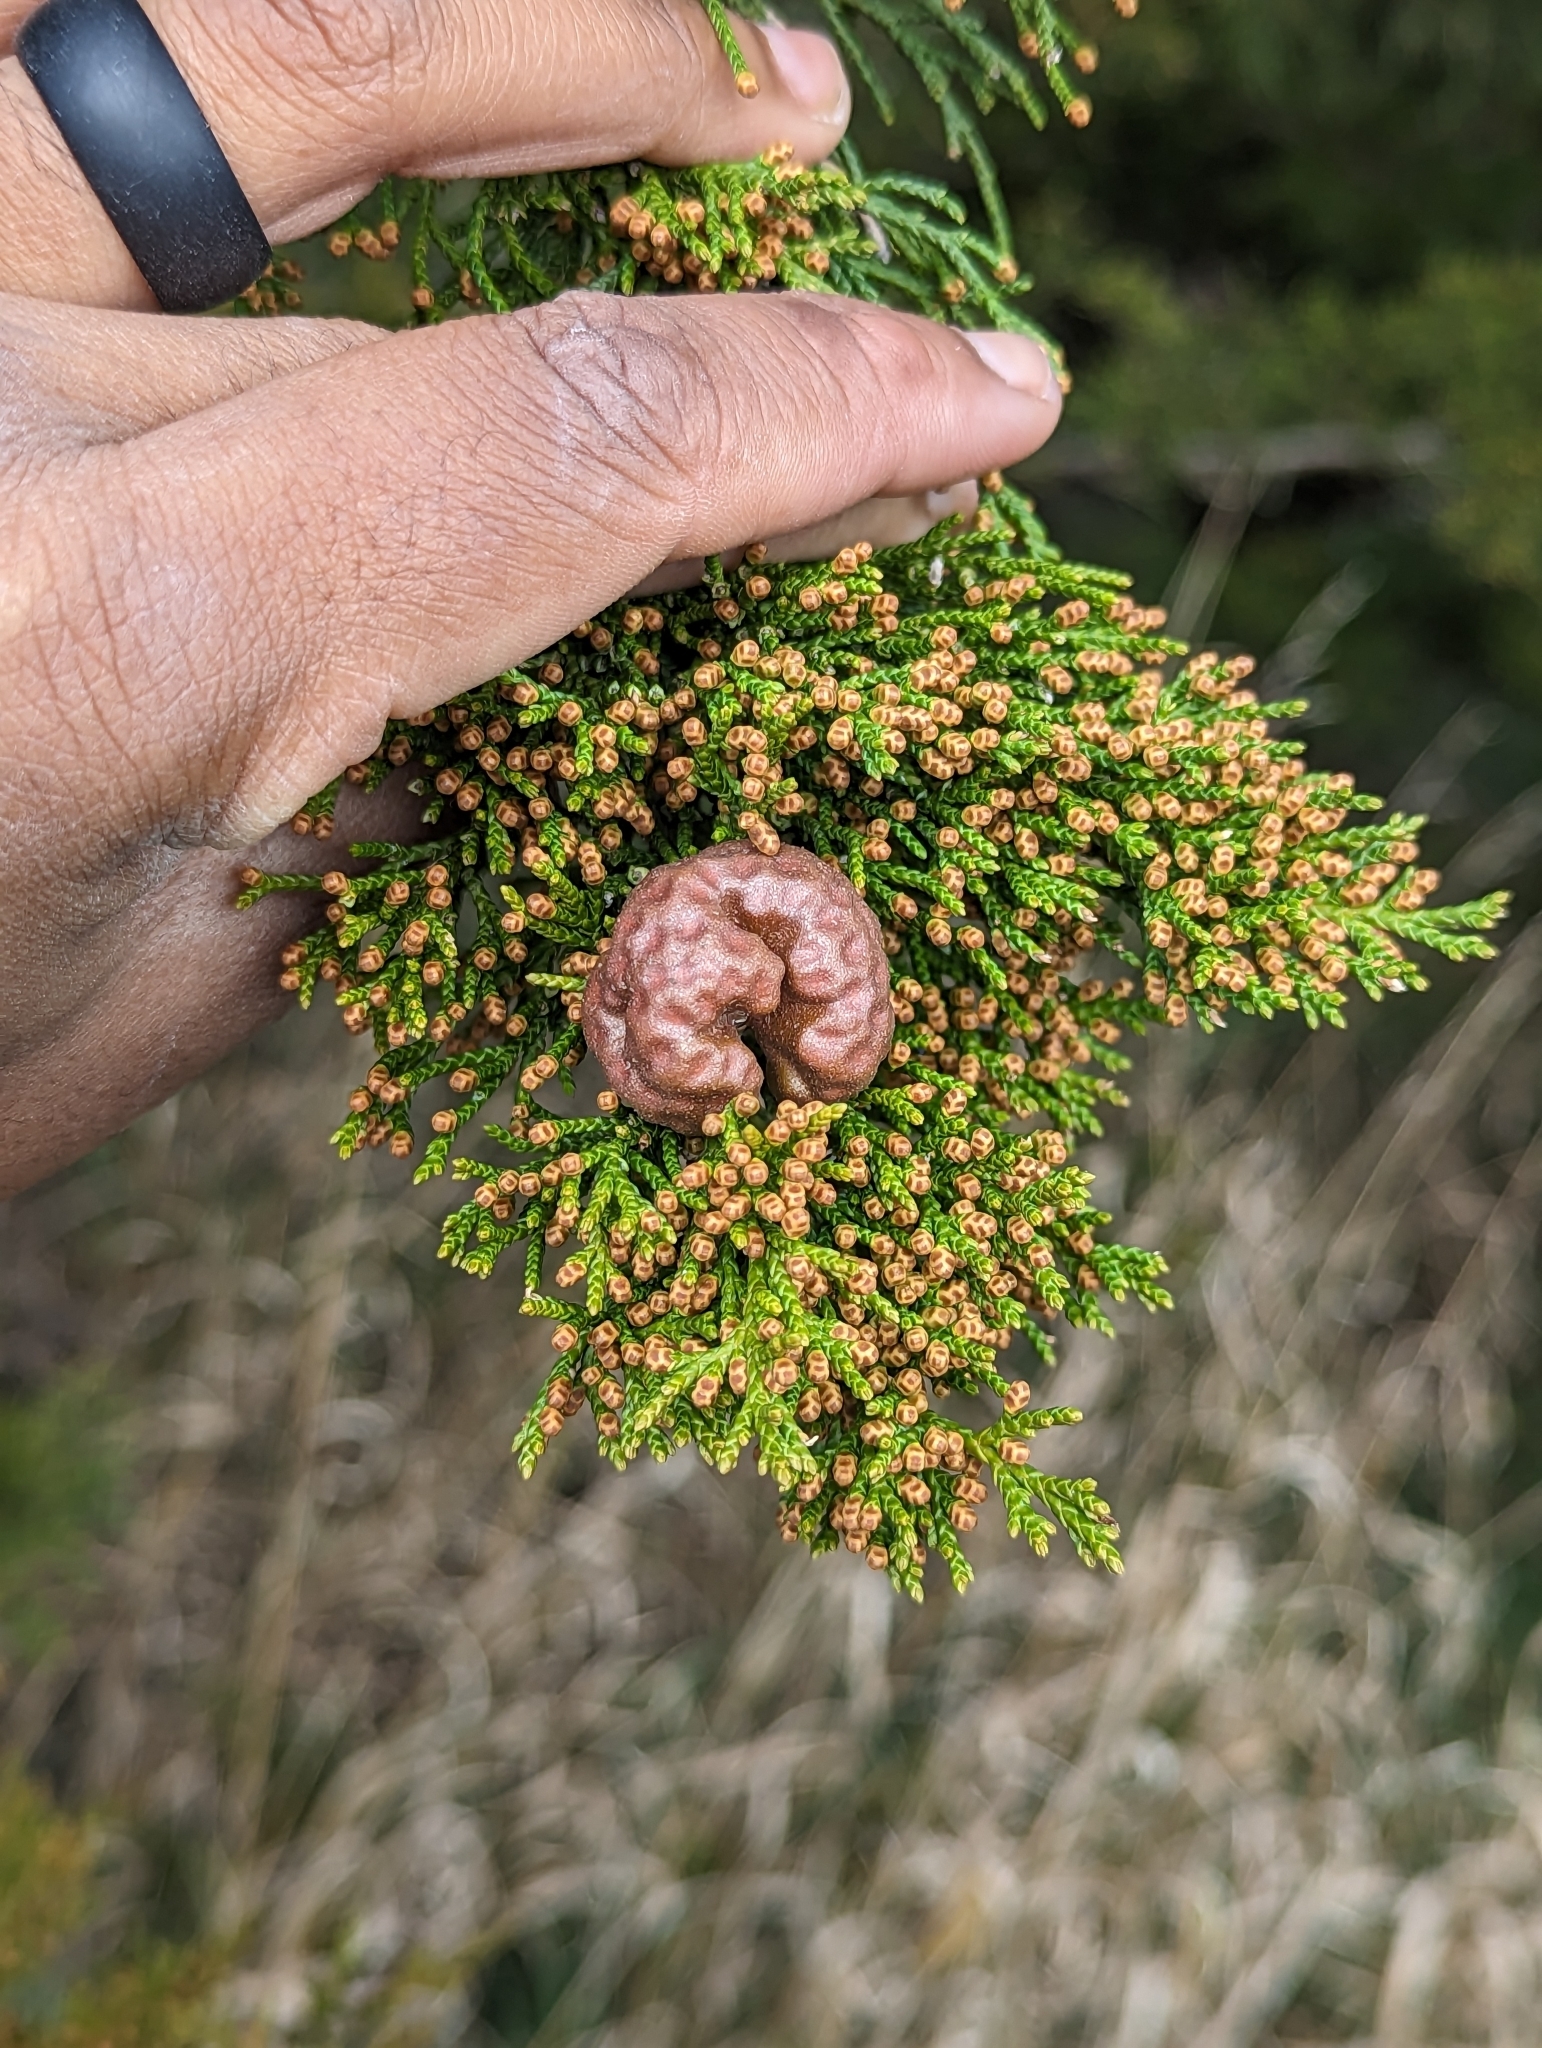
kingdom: Fungi
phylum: Basidiomycota
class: Pucciniomycetes
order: Pucciniales
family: Gymnosporangiaceae
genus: Gymnosporangium
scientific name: Gymnosporangium juniperi-virginianae
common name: Juniper-apple rust
